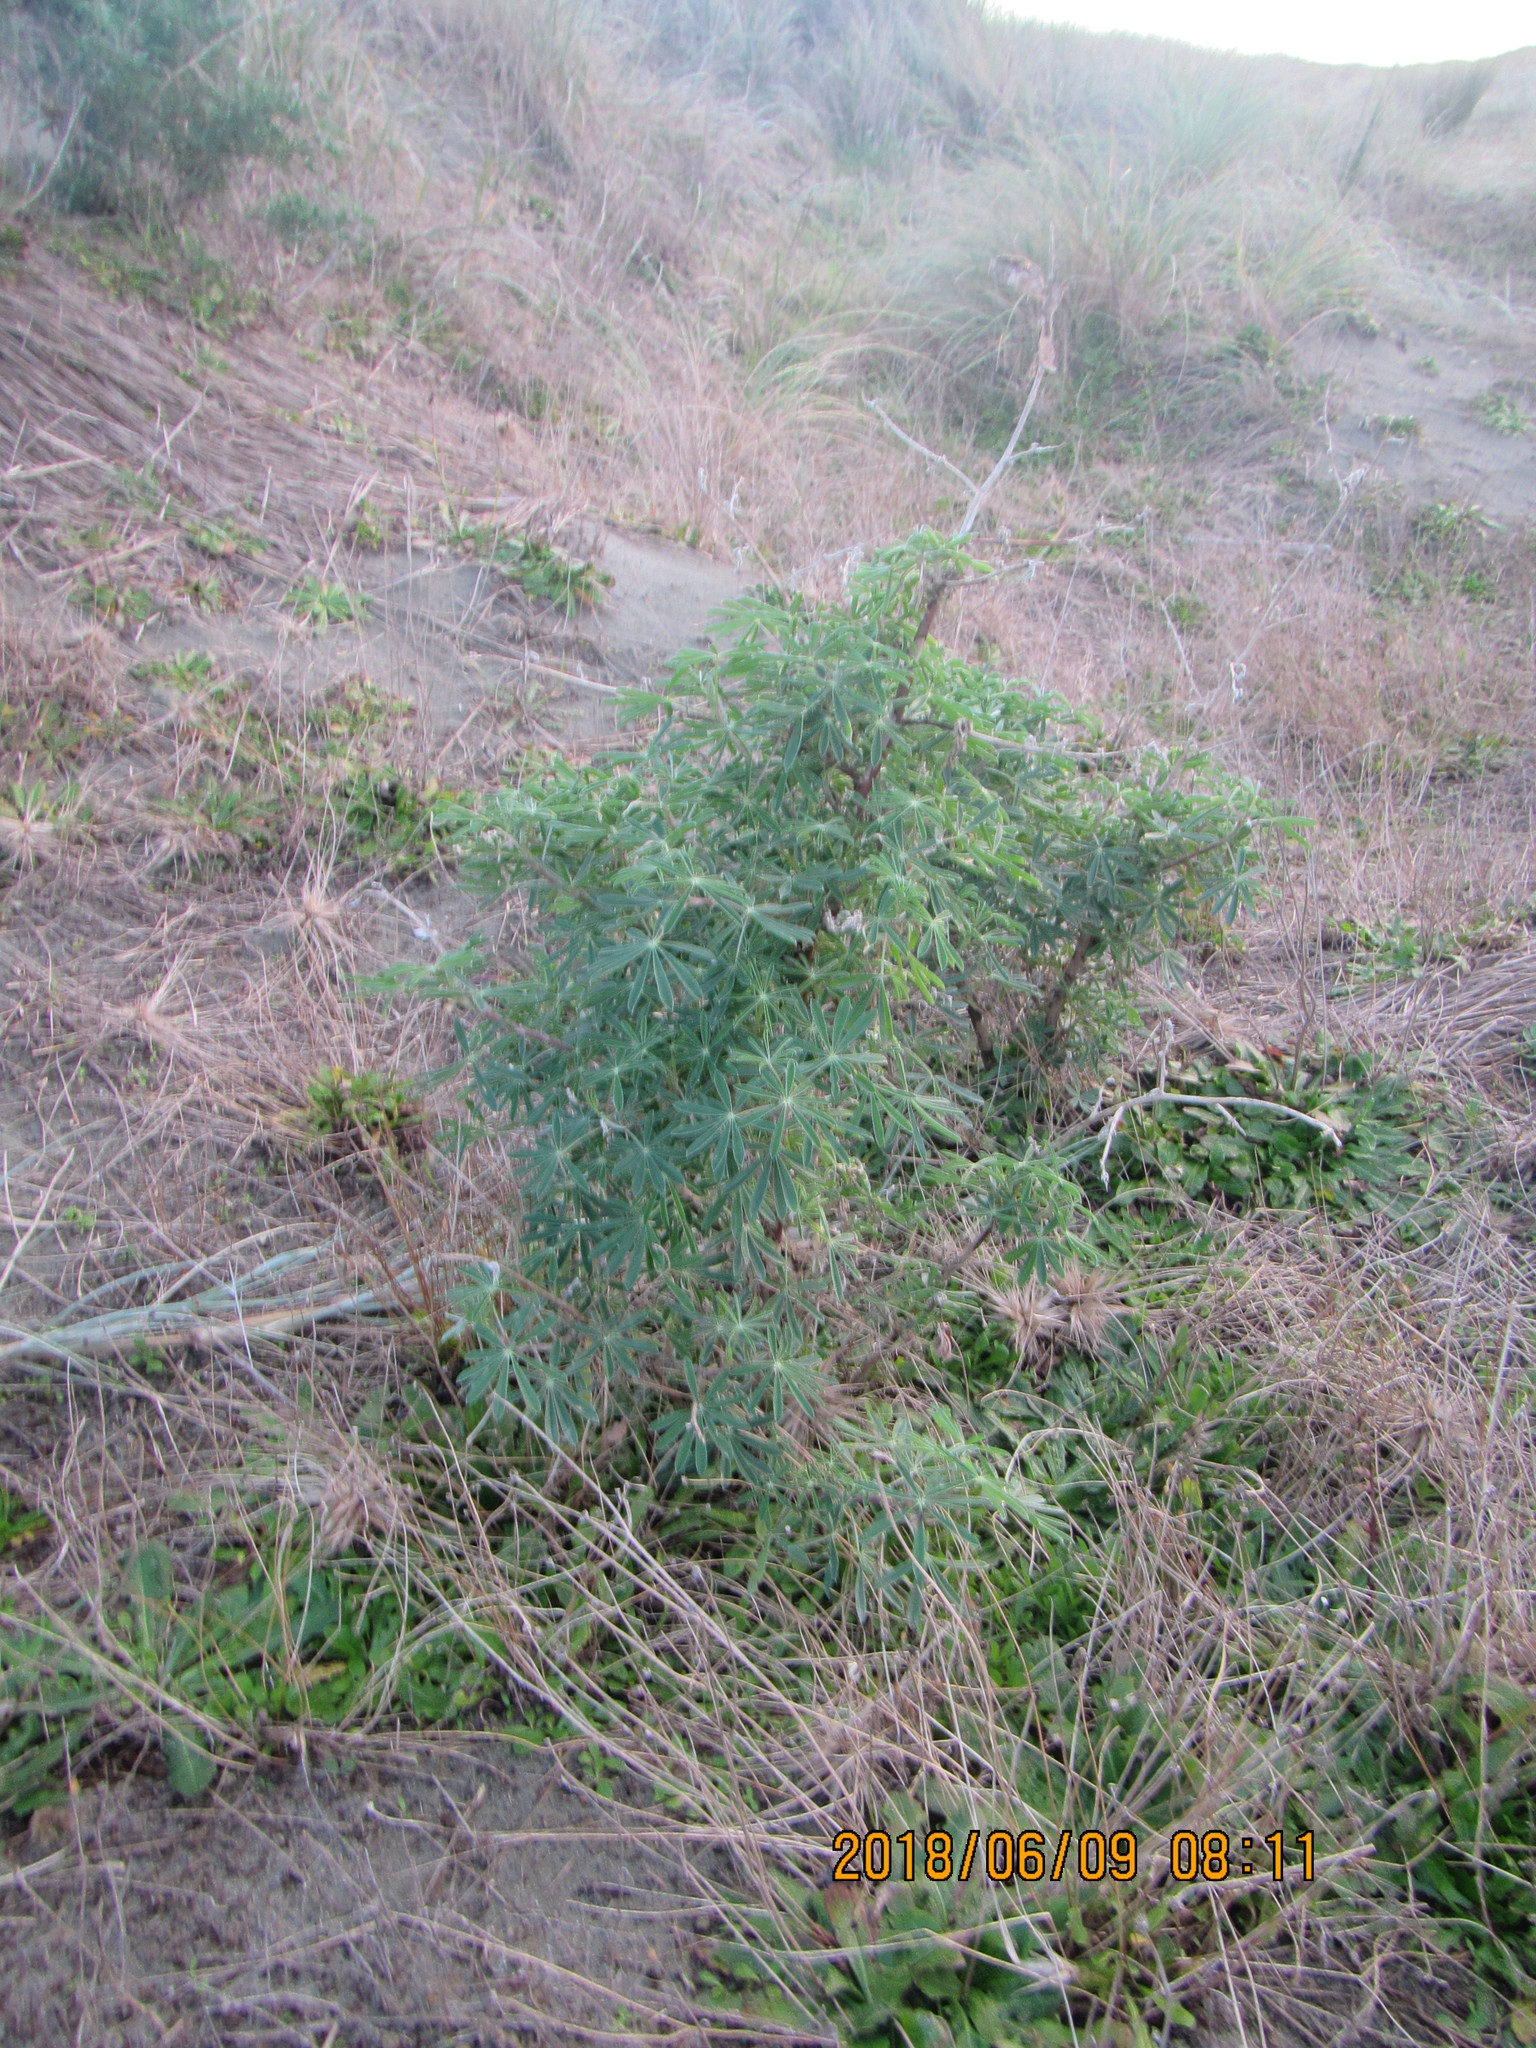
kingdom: Plantae
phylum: Tracheophyta
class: Magnoliopsida
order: Fabales
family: Fabaceae
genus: Lupinus
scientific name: Lupinus arboreus
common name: Yellow bush lupine
